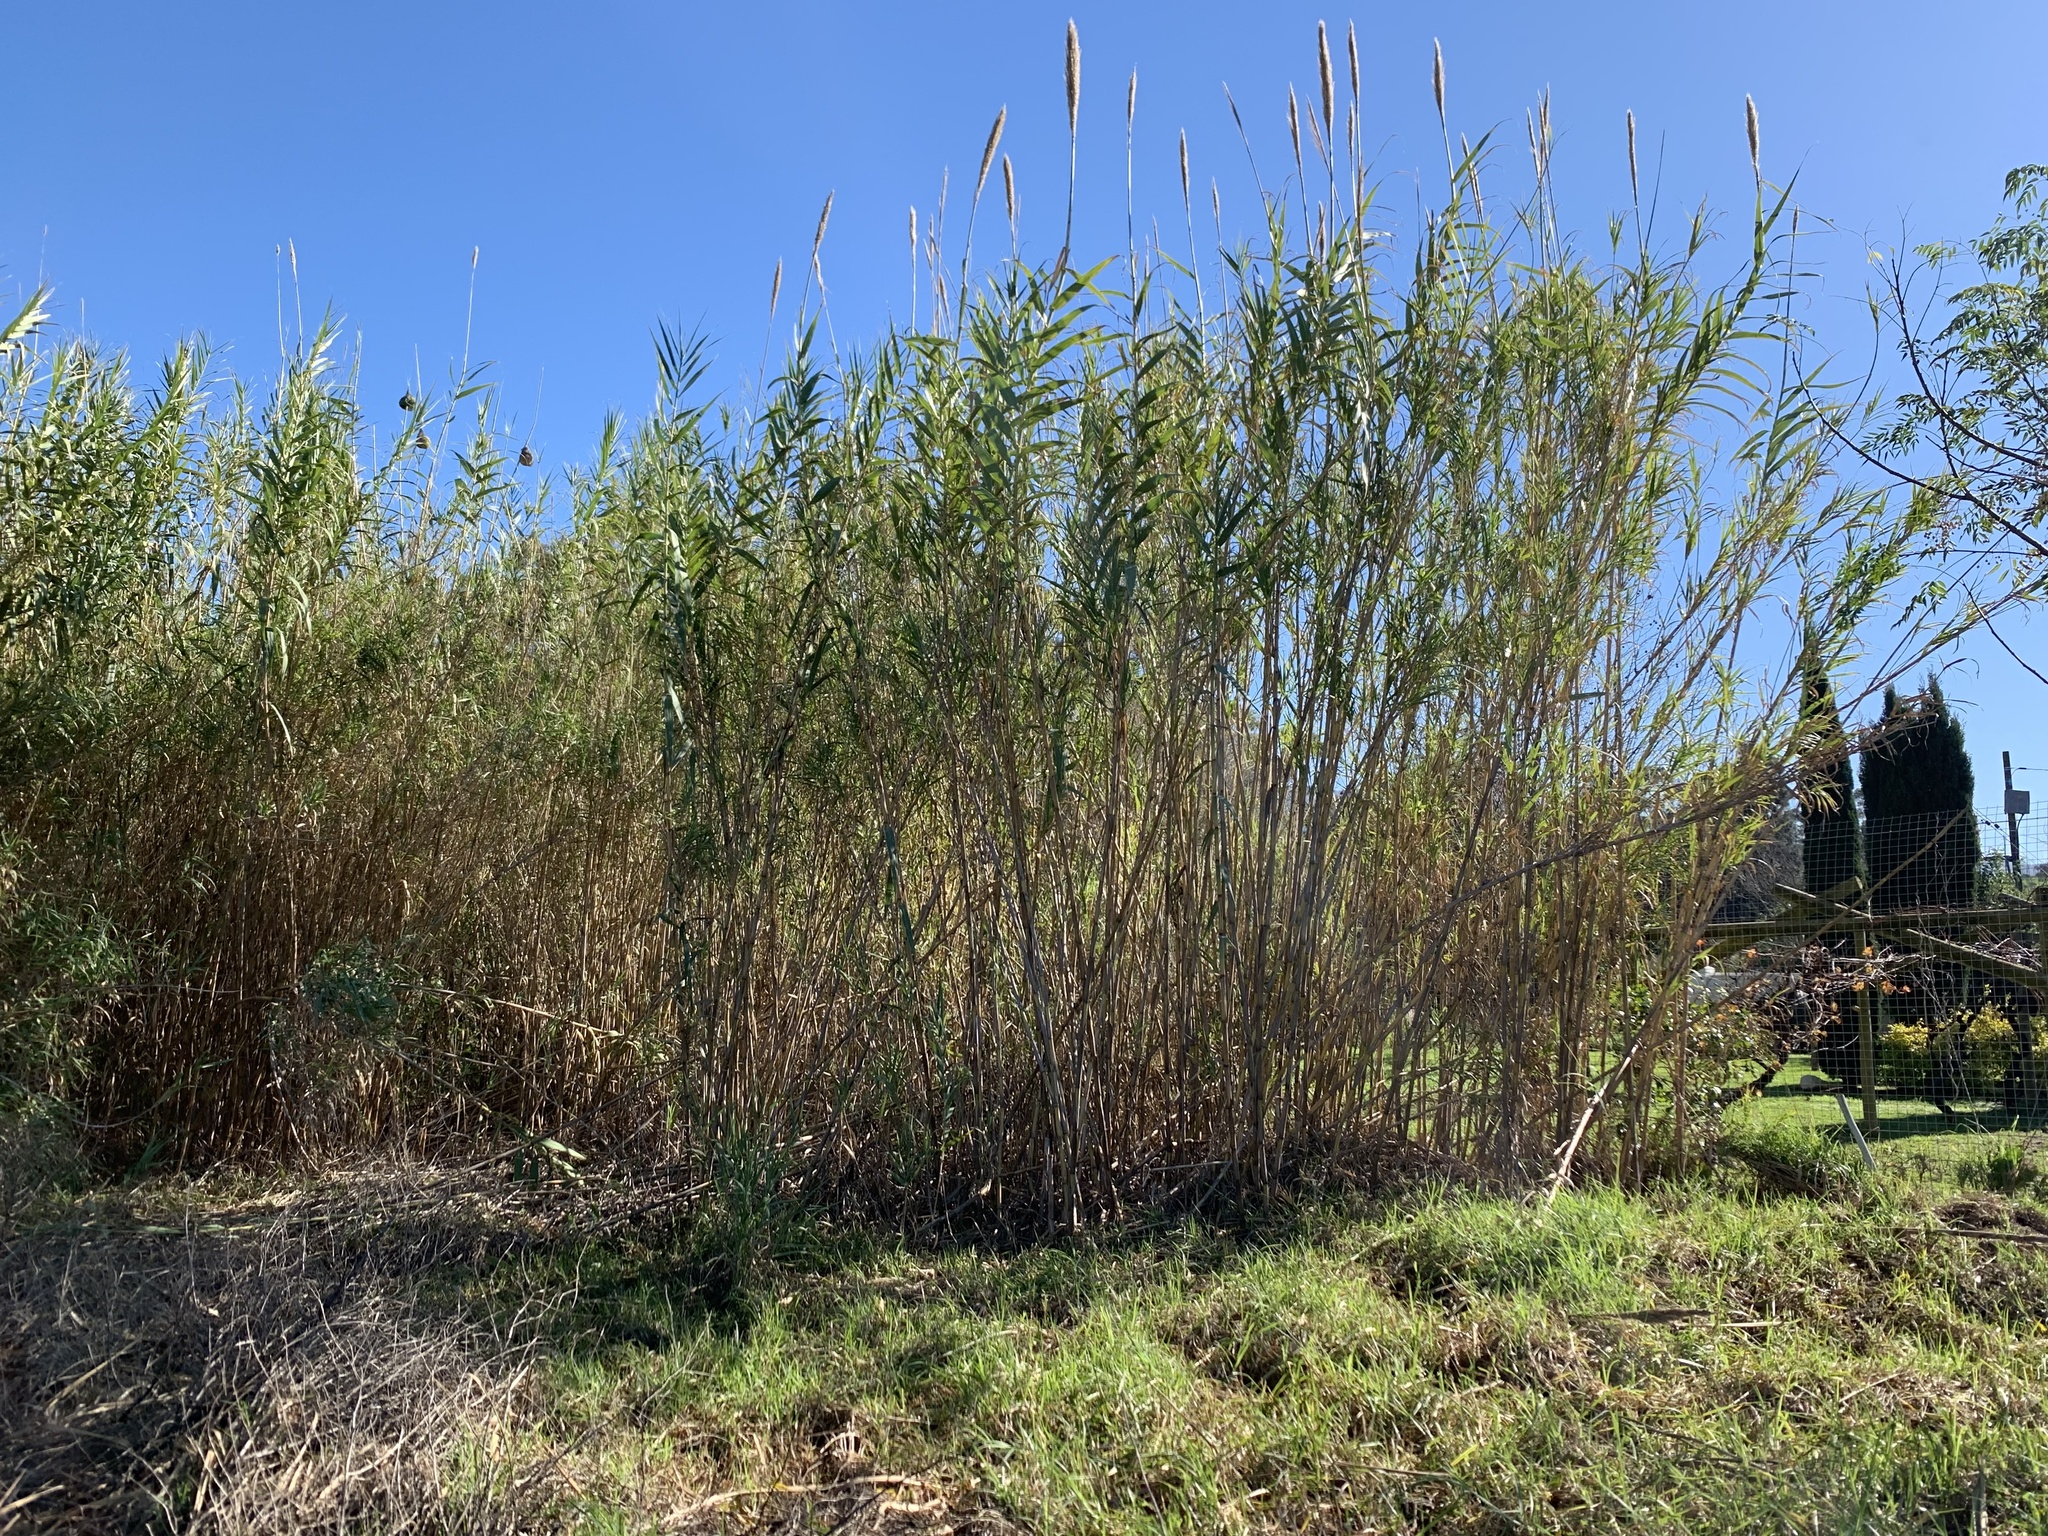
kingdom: Plantae
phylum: Tracheophyta
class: Liliopsida
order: Poales
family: Poaceae
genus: Arundo
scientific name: Arundo donax
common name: Giant reed
